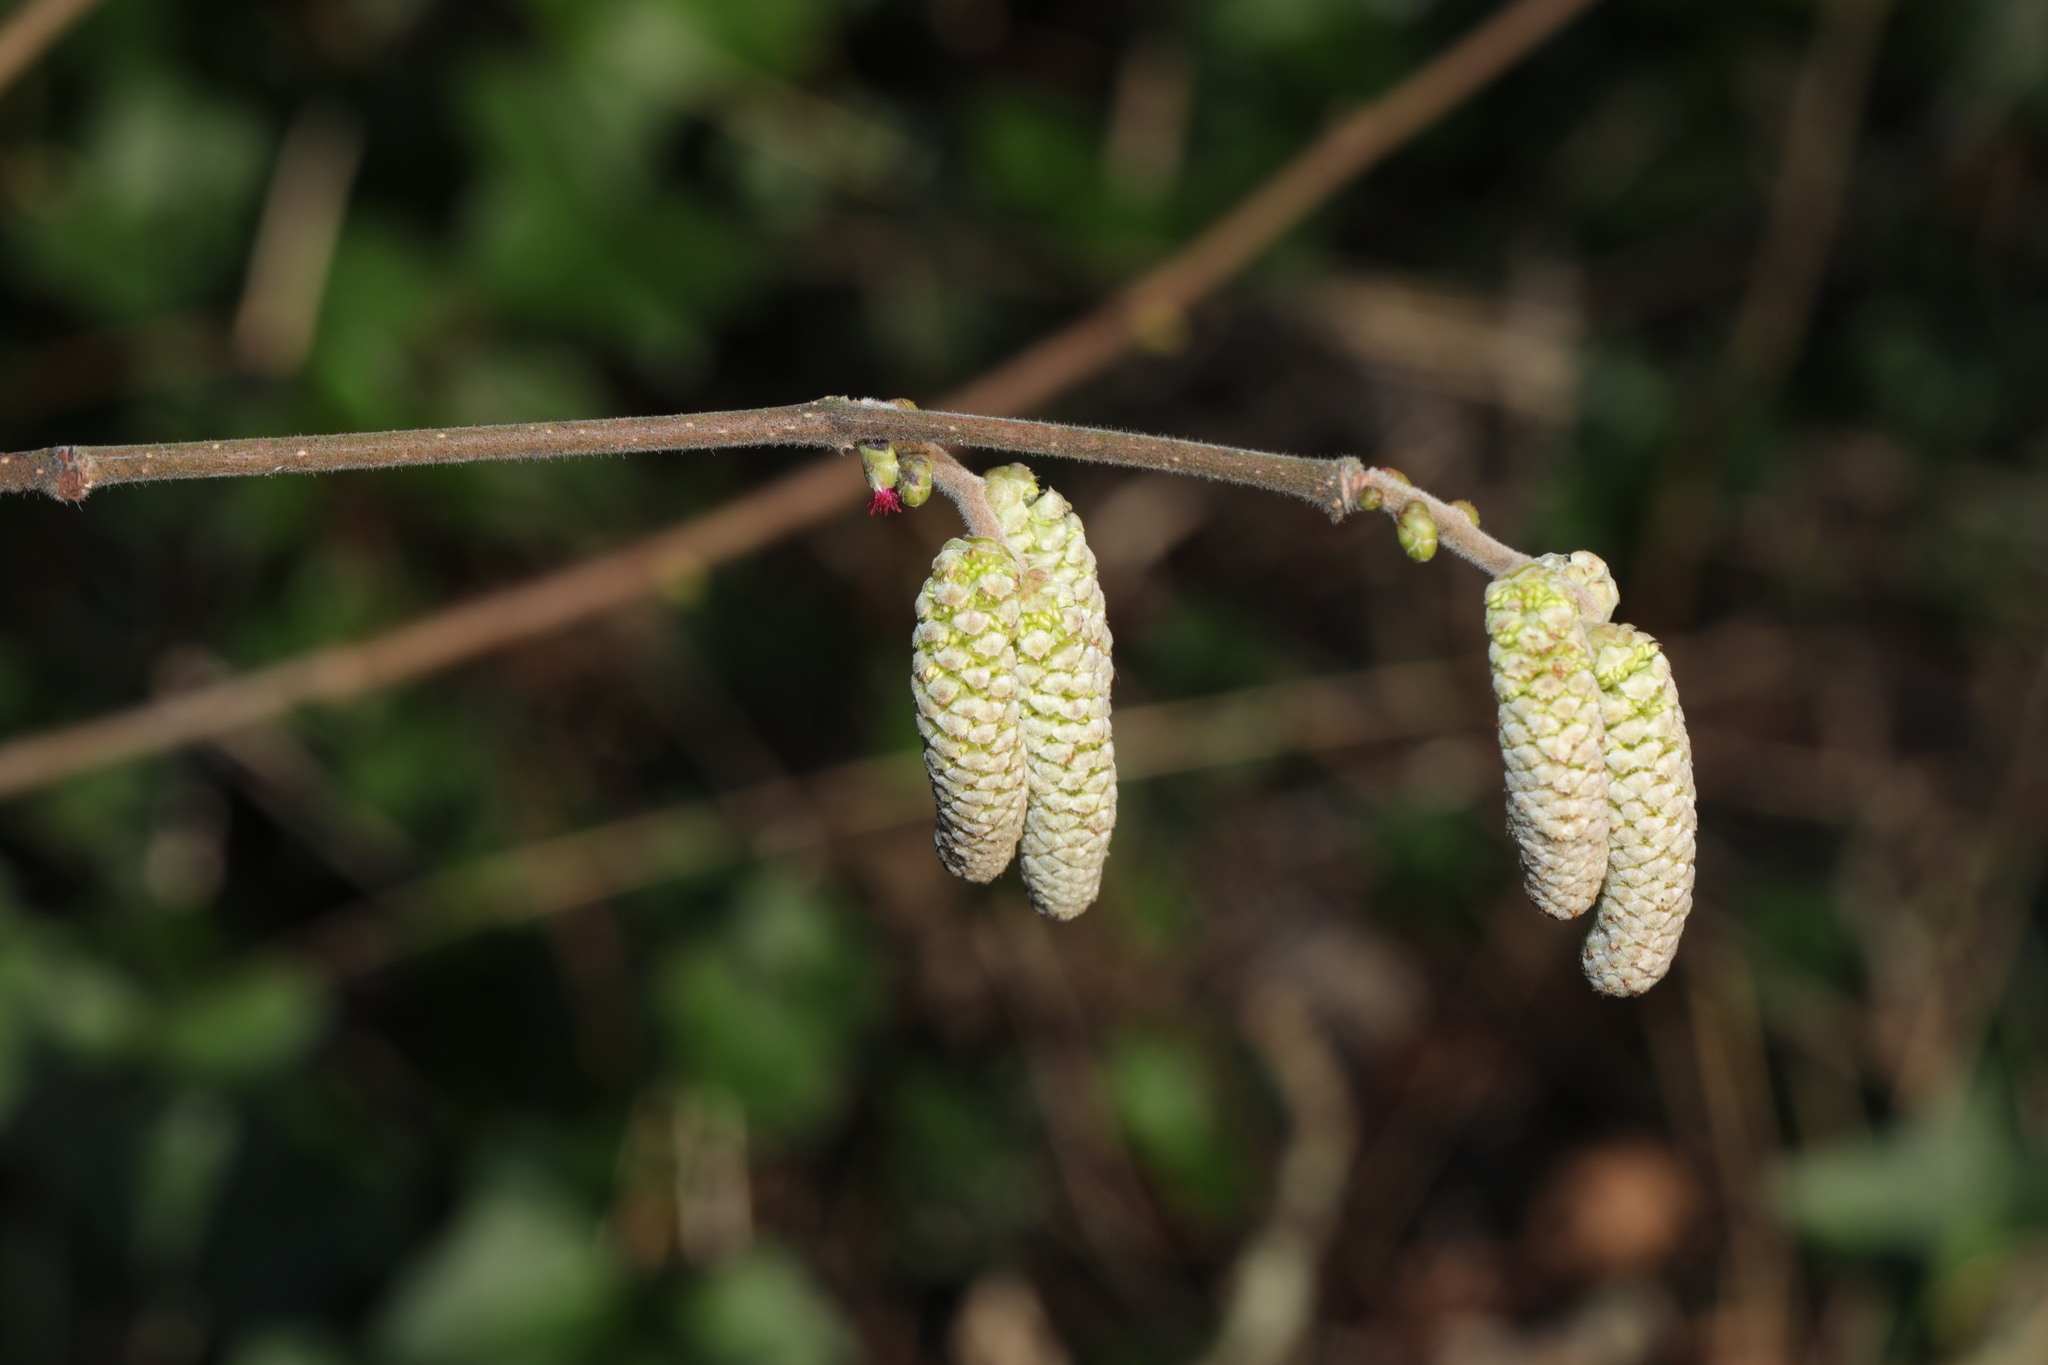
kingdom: Plantae
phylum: Tracheophyta
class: Magnoliopsida
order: Fagales
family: Betulaceae
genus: Corylus
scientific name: Corylus avellana
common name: European hazel
